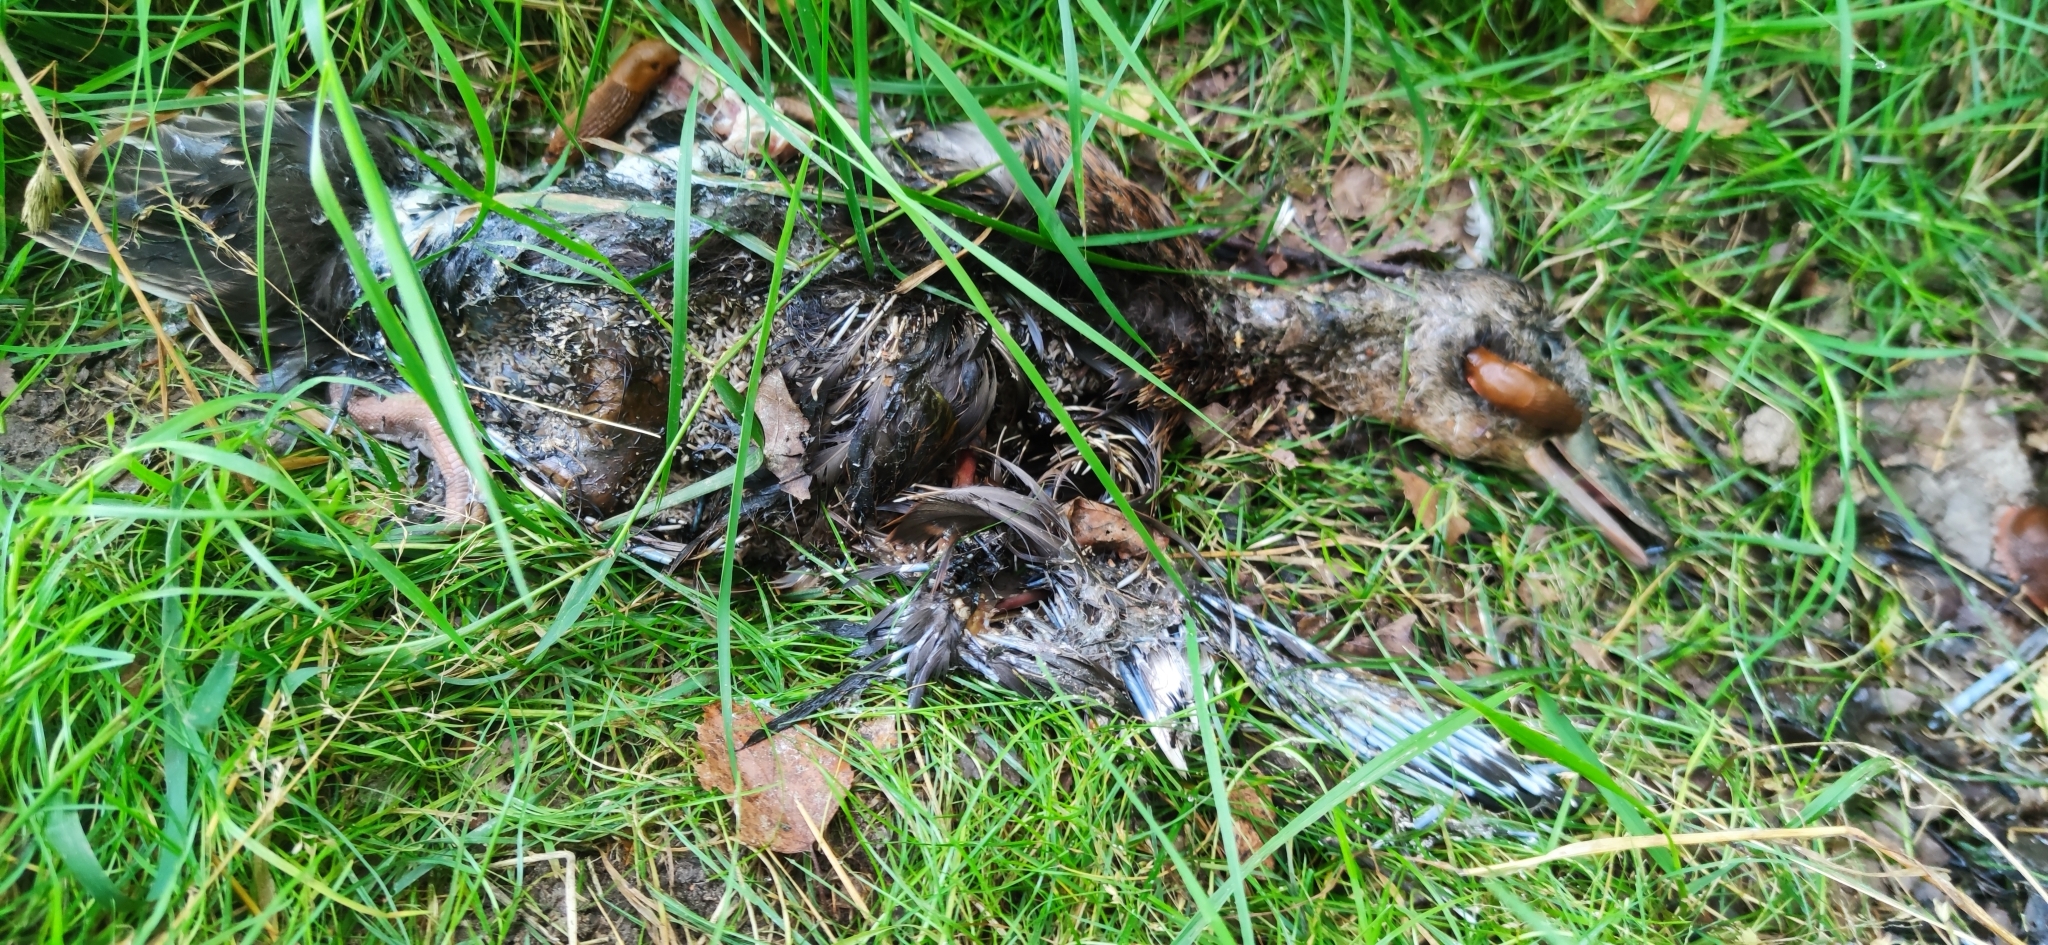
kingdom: Animalia
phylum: Chordata
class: Aves
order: Anseriformes
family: Anatidae
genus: Anas
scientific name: Anas platyrhynchos
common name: Mallard
